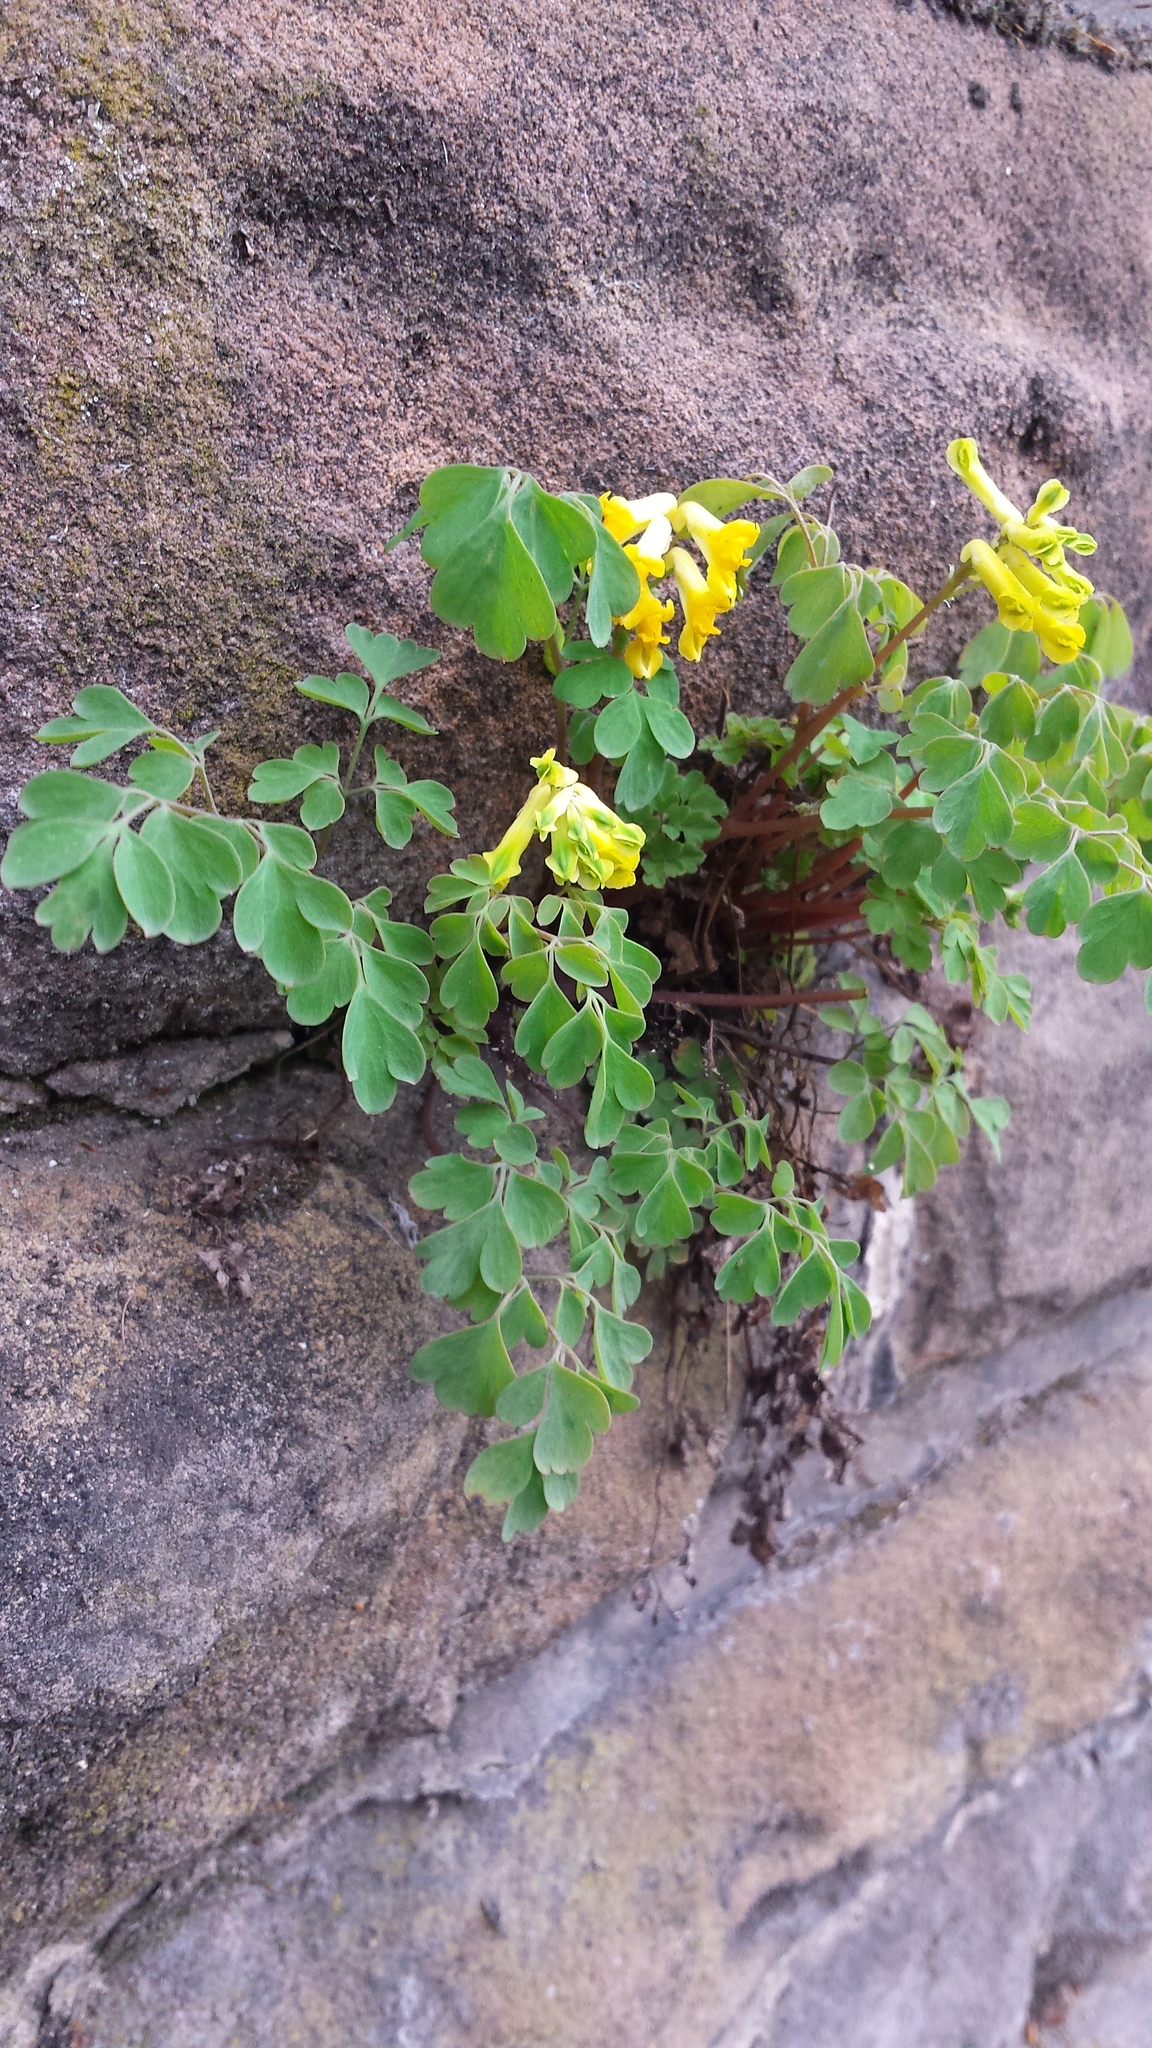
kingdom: Plantae
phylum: Tracheophyta
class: Magnoliopsida
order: Ranunculales
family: Papaveraceae
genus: Pseudofumaria
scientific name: Pseudofumaria lutea
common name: Yellow corydalis
